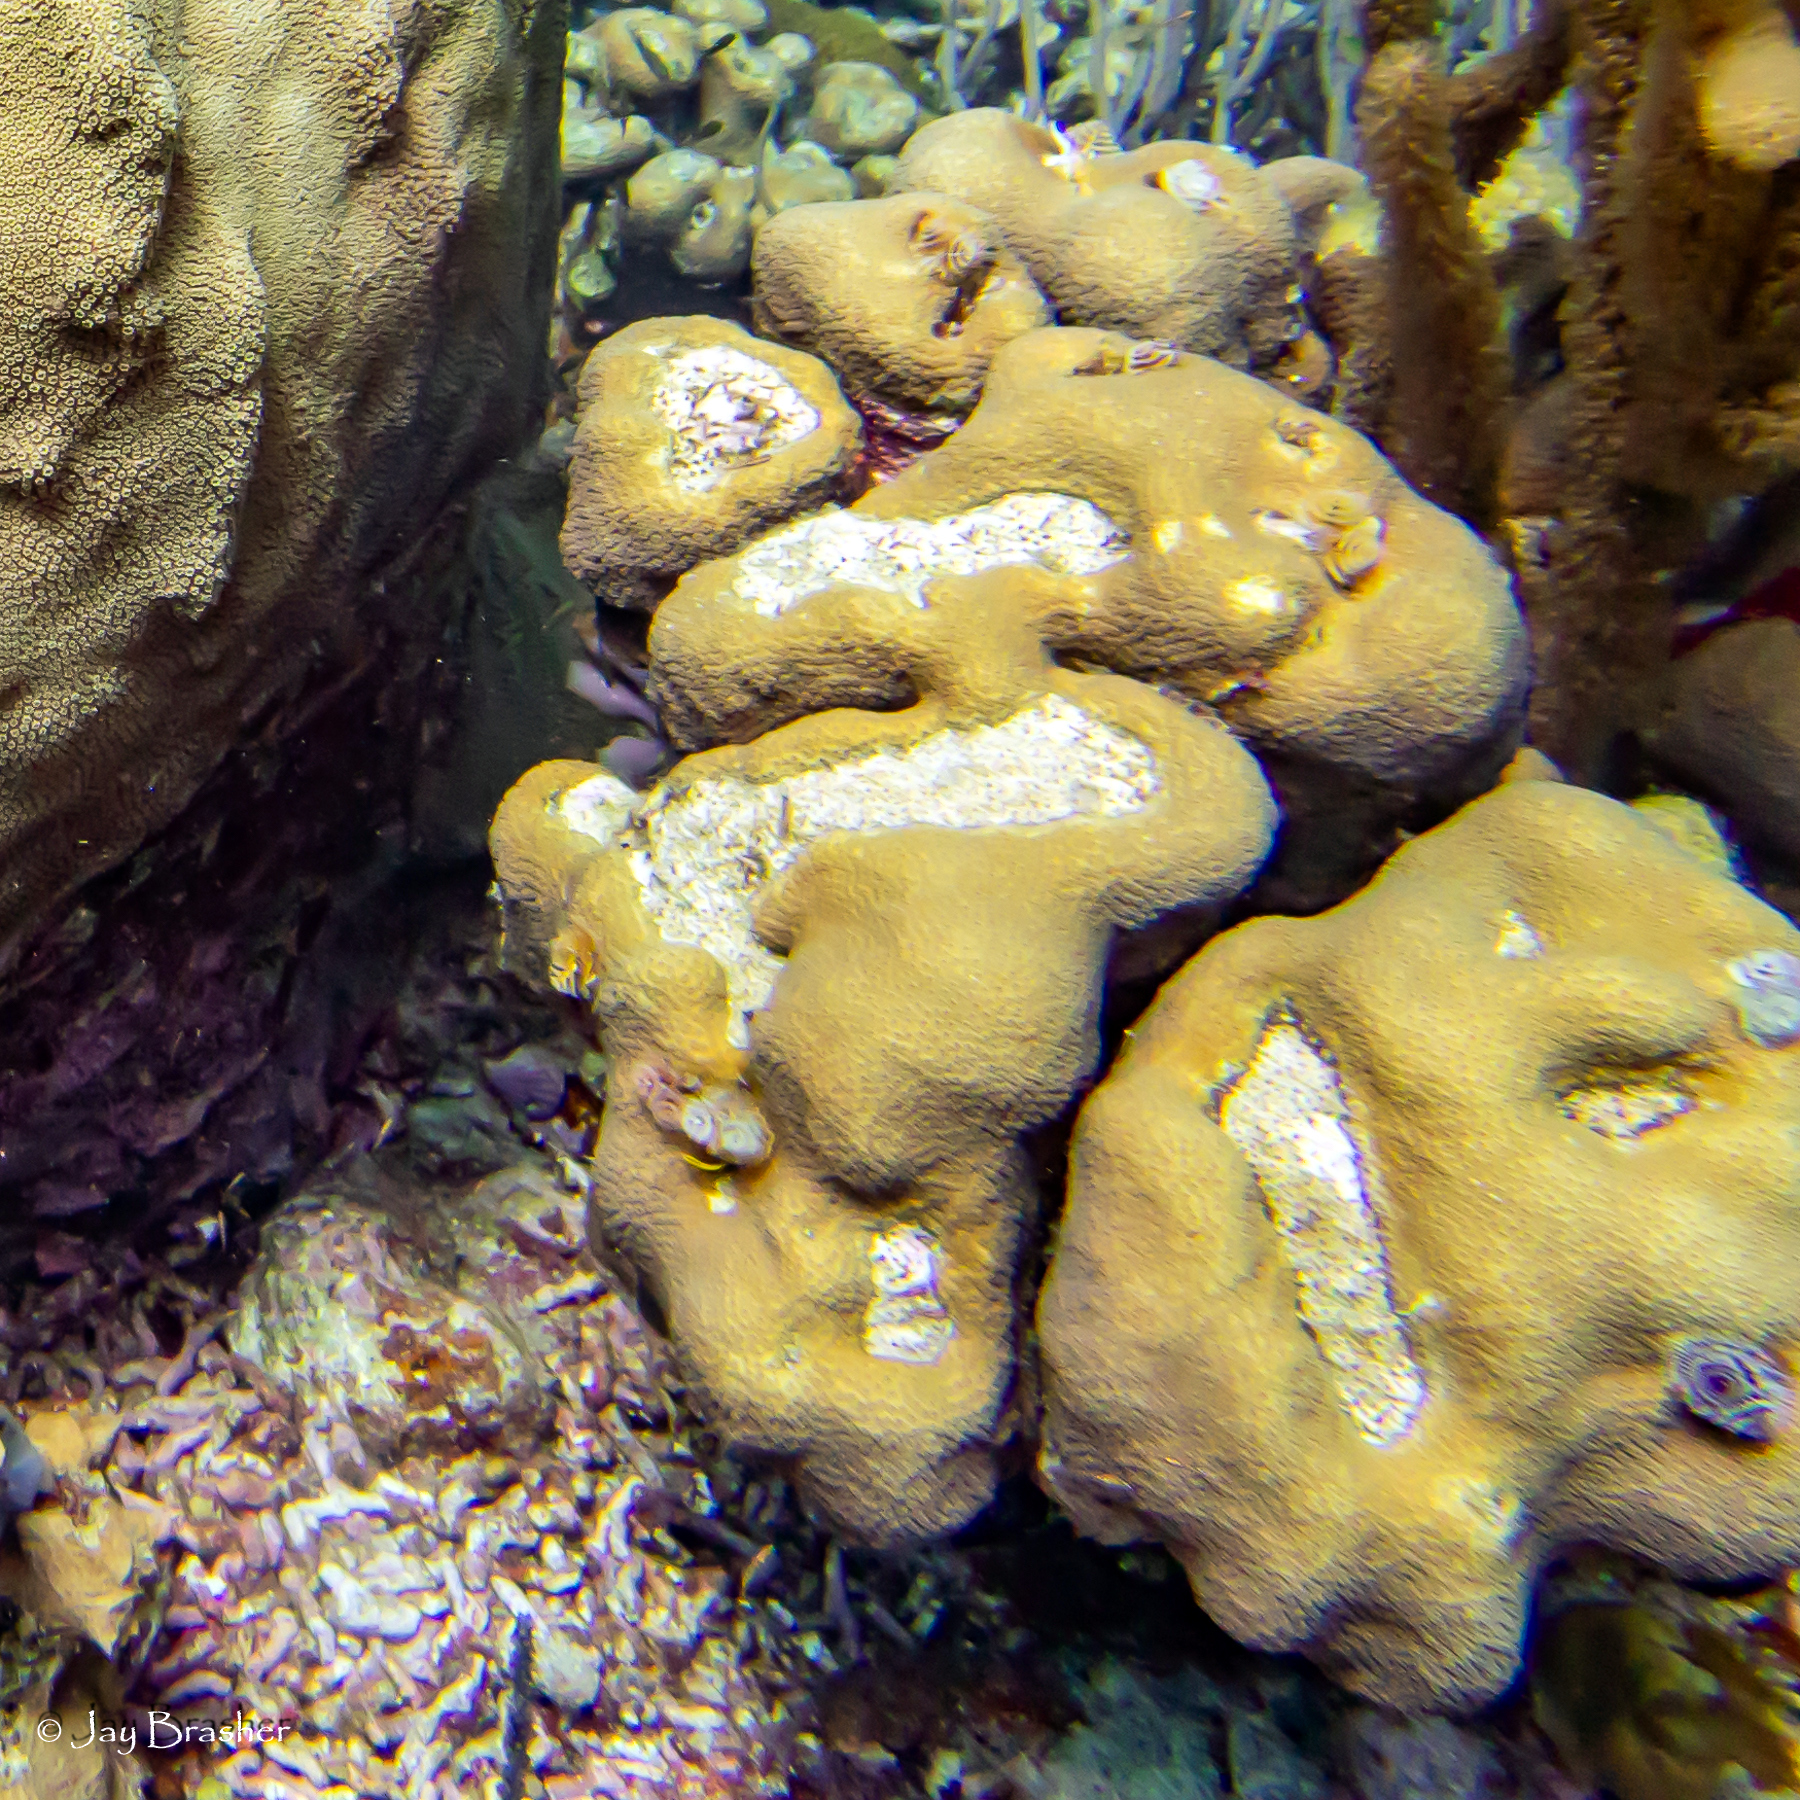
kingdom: Animalia
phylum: Cnidaria
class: Anthozoa
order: Scleractinia
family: Merulinidae
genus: Orbicella
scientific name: Orbicella annularis
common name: Boulder star coral
